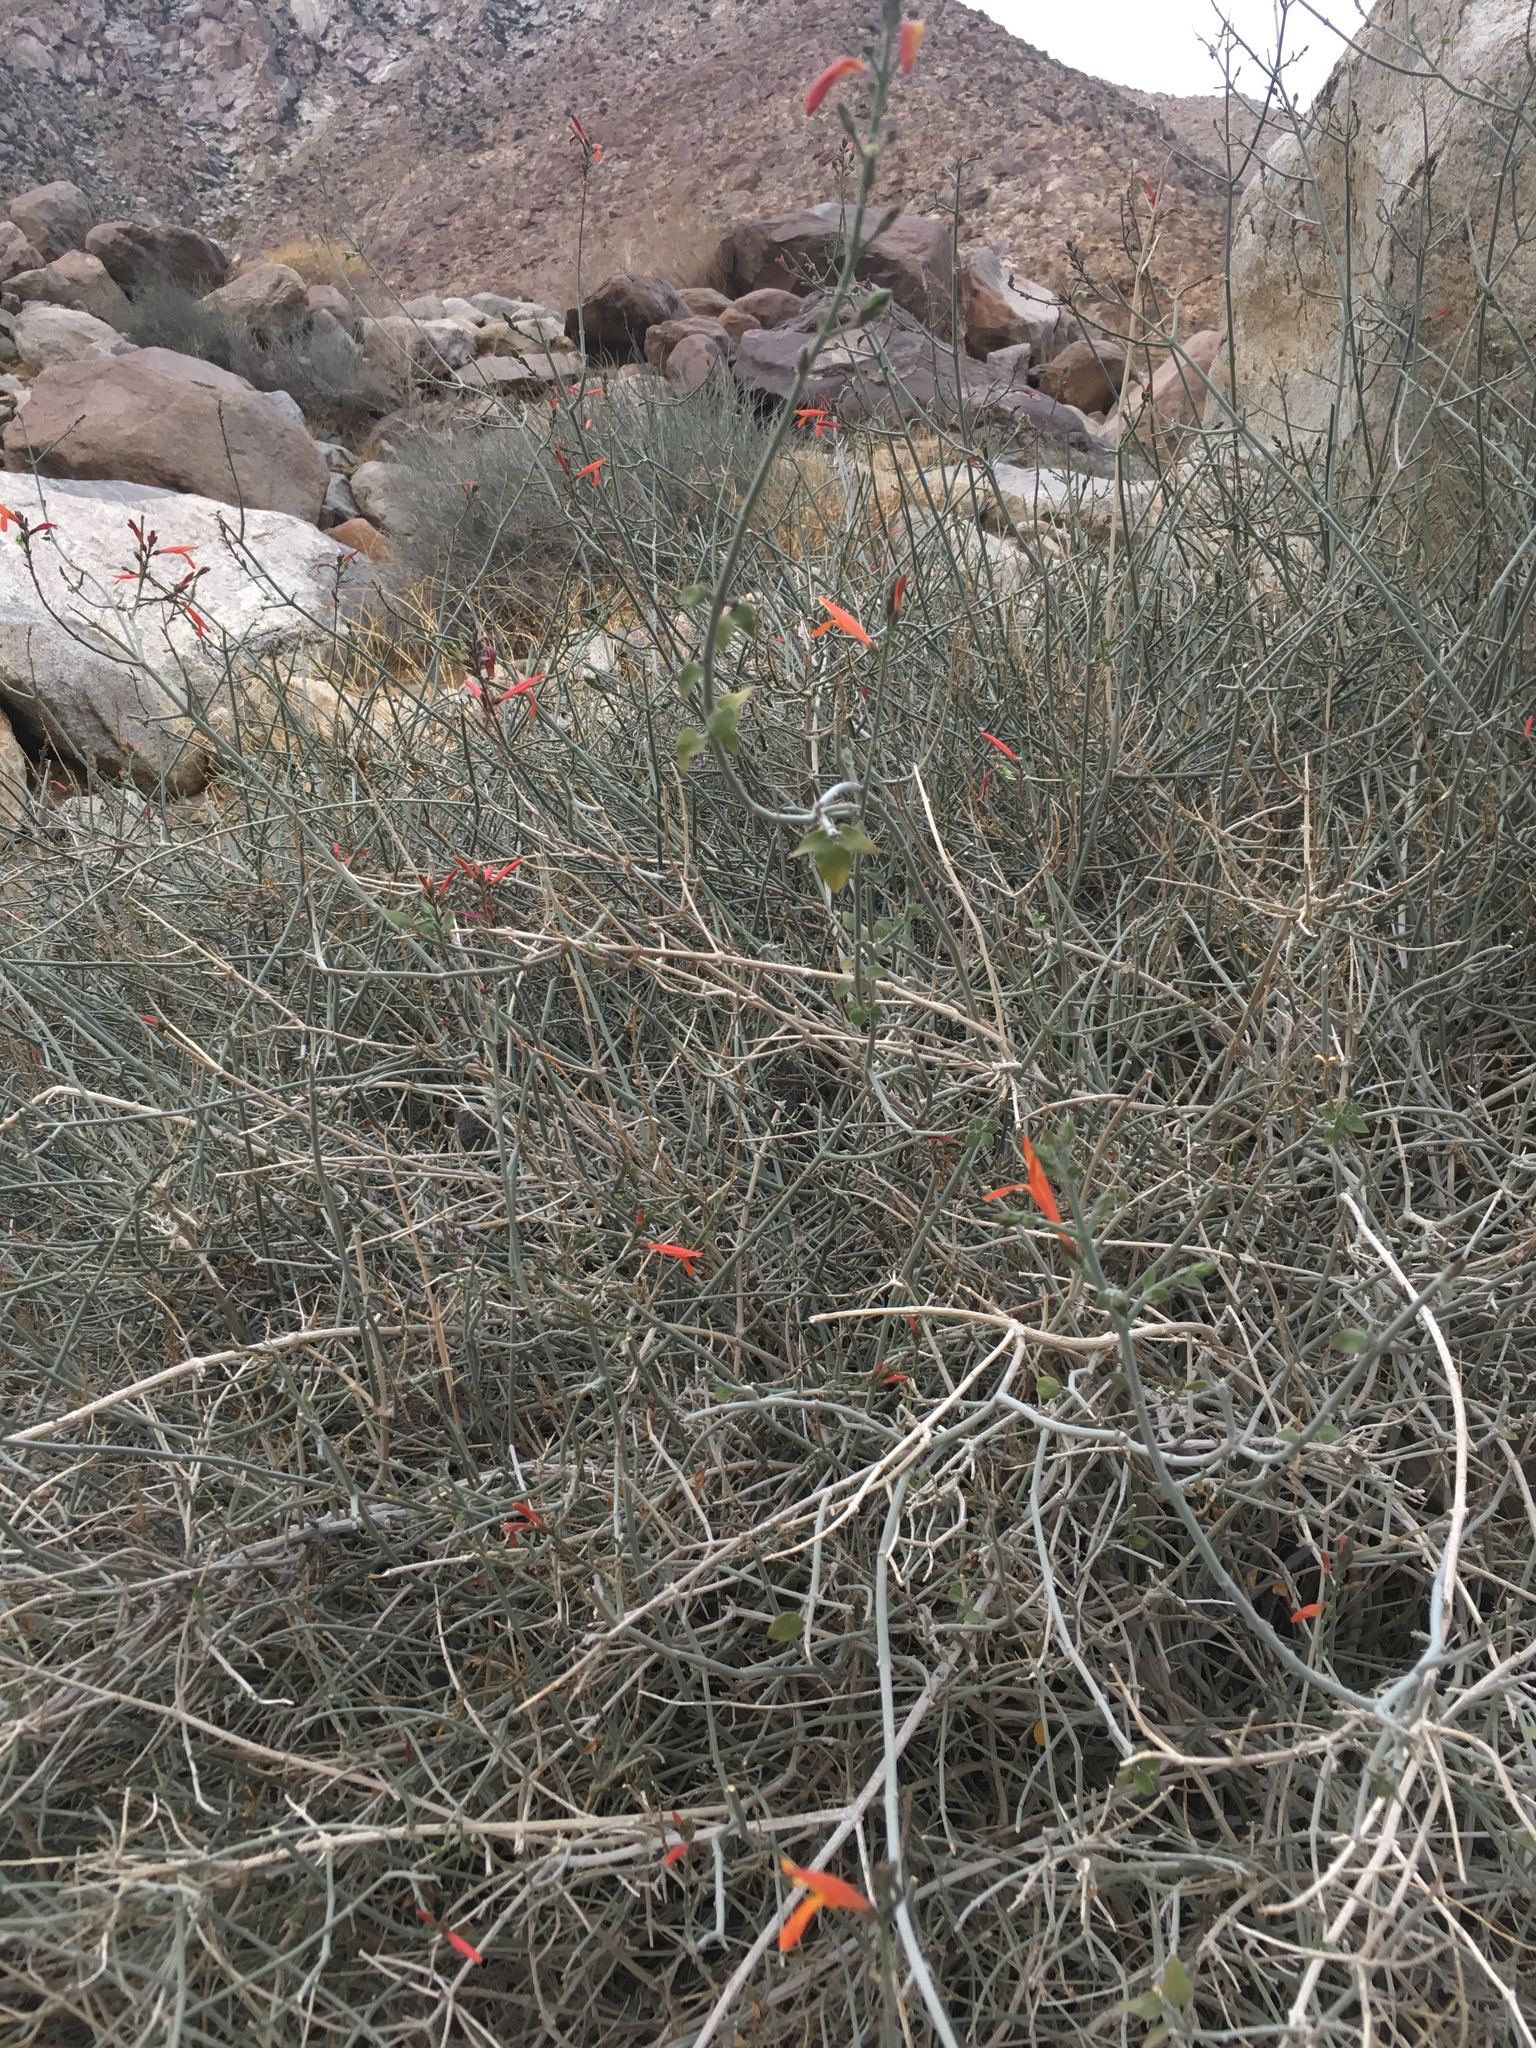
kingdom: Plantae
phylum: Tracheophyta
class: Magnoliopsida
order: Lamiales
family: Acanthaceae
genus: Justicia
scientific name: Justicia californica
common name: Chuparosa-honeysuckle
